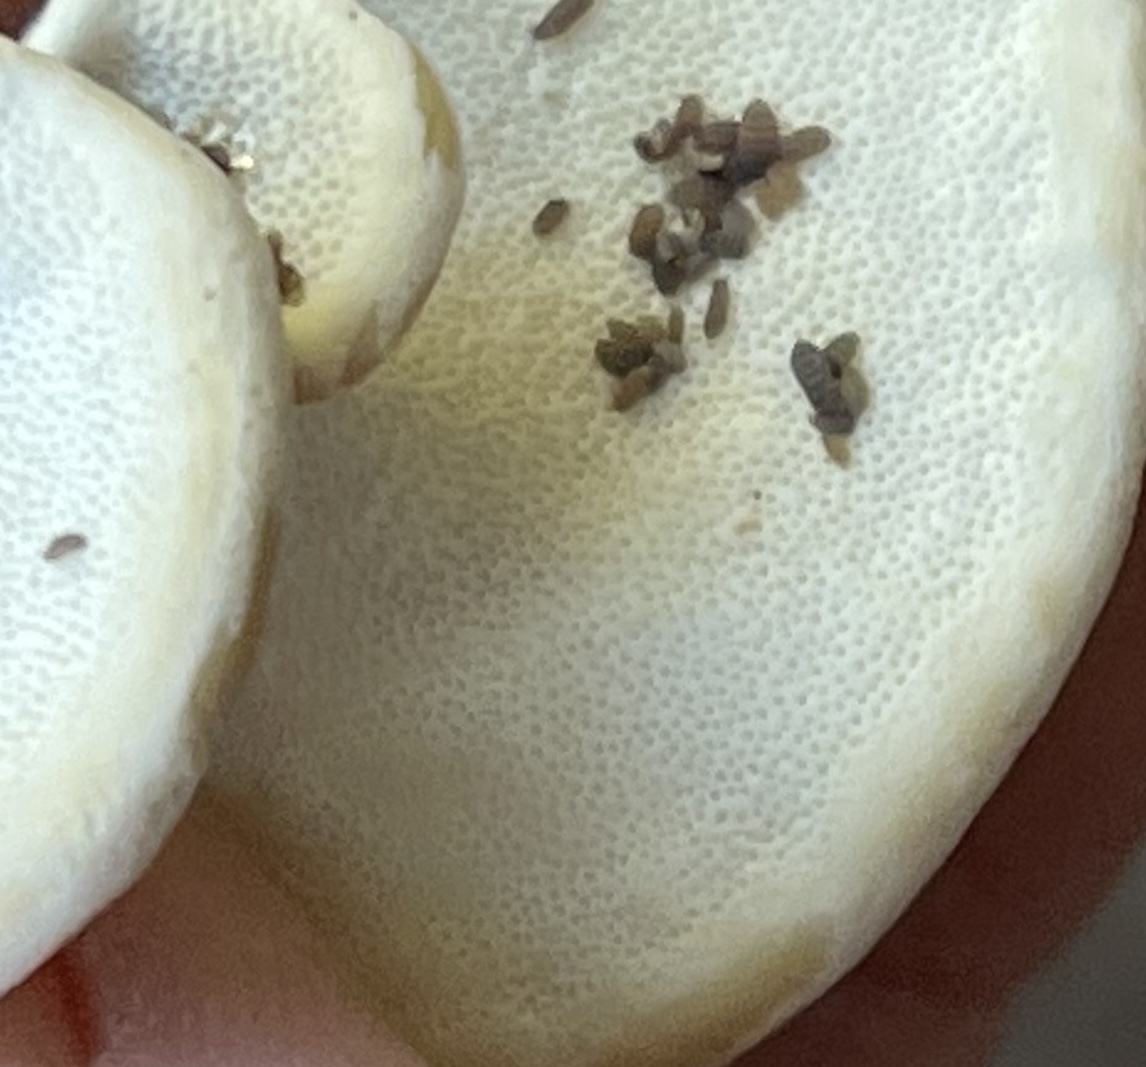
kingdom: Fungi
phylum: Basidiomycota
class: Agaricomycetes
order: Polyporales
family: Polyporaceae
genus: Trametes
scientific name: Trametes versicolor
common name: Turkeytail
